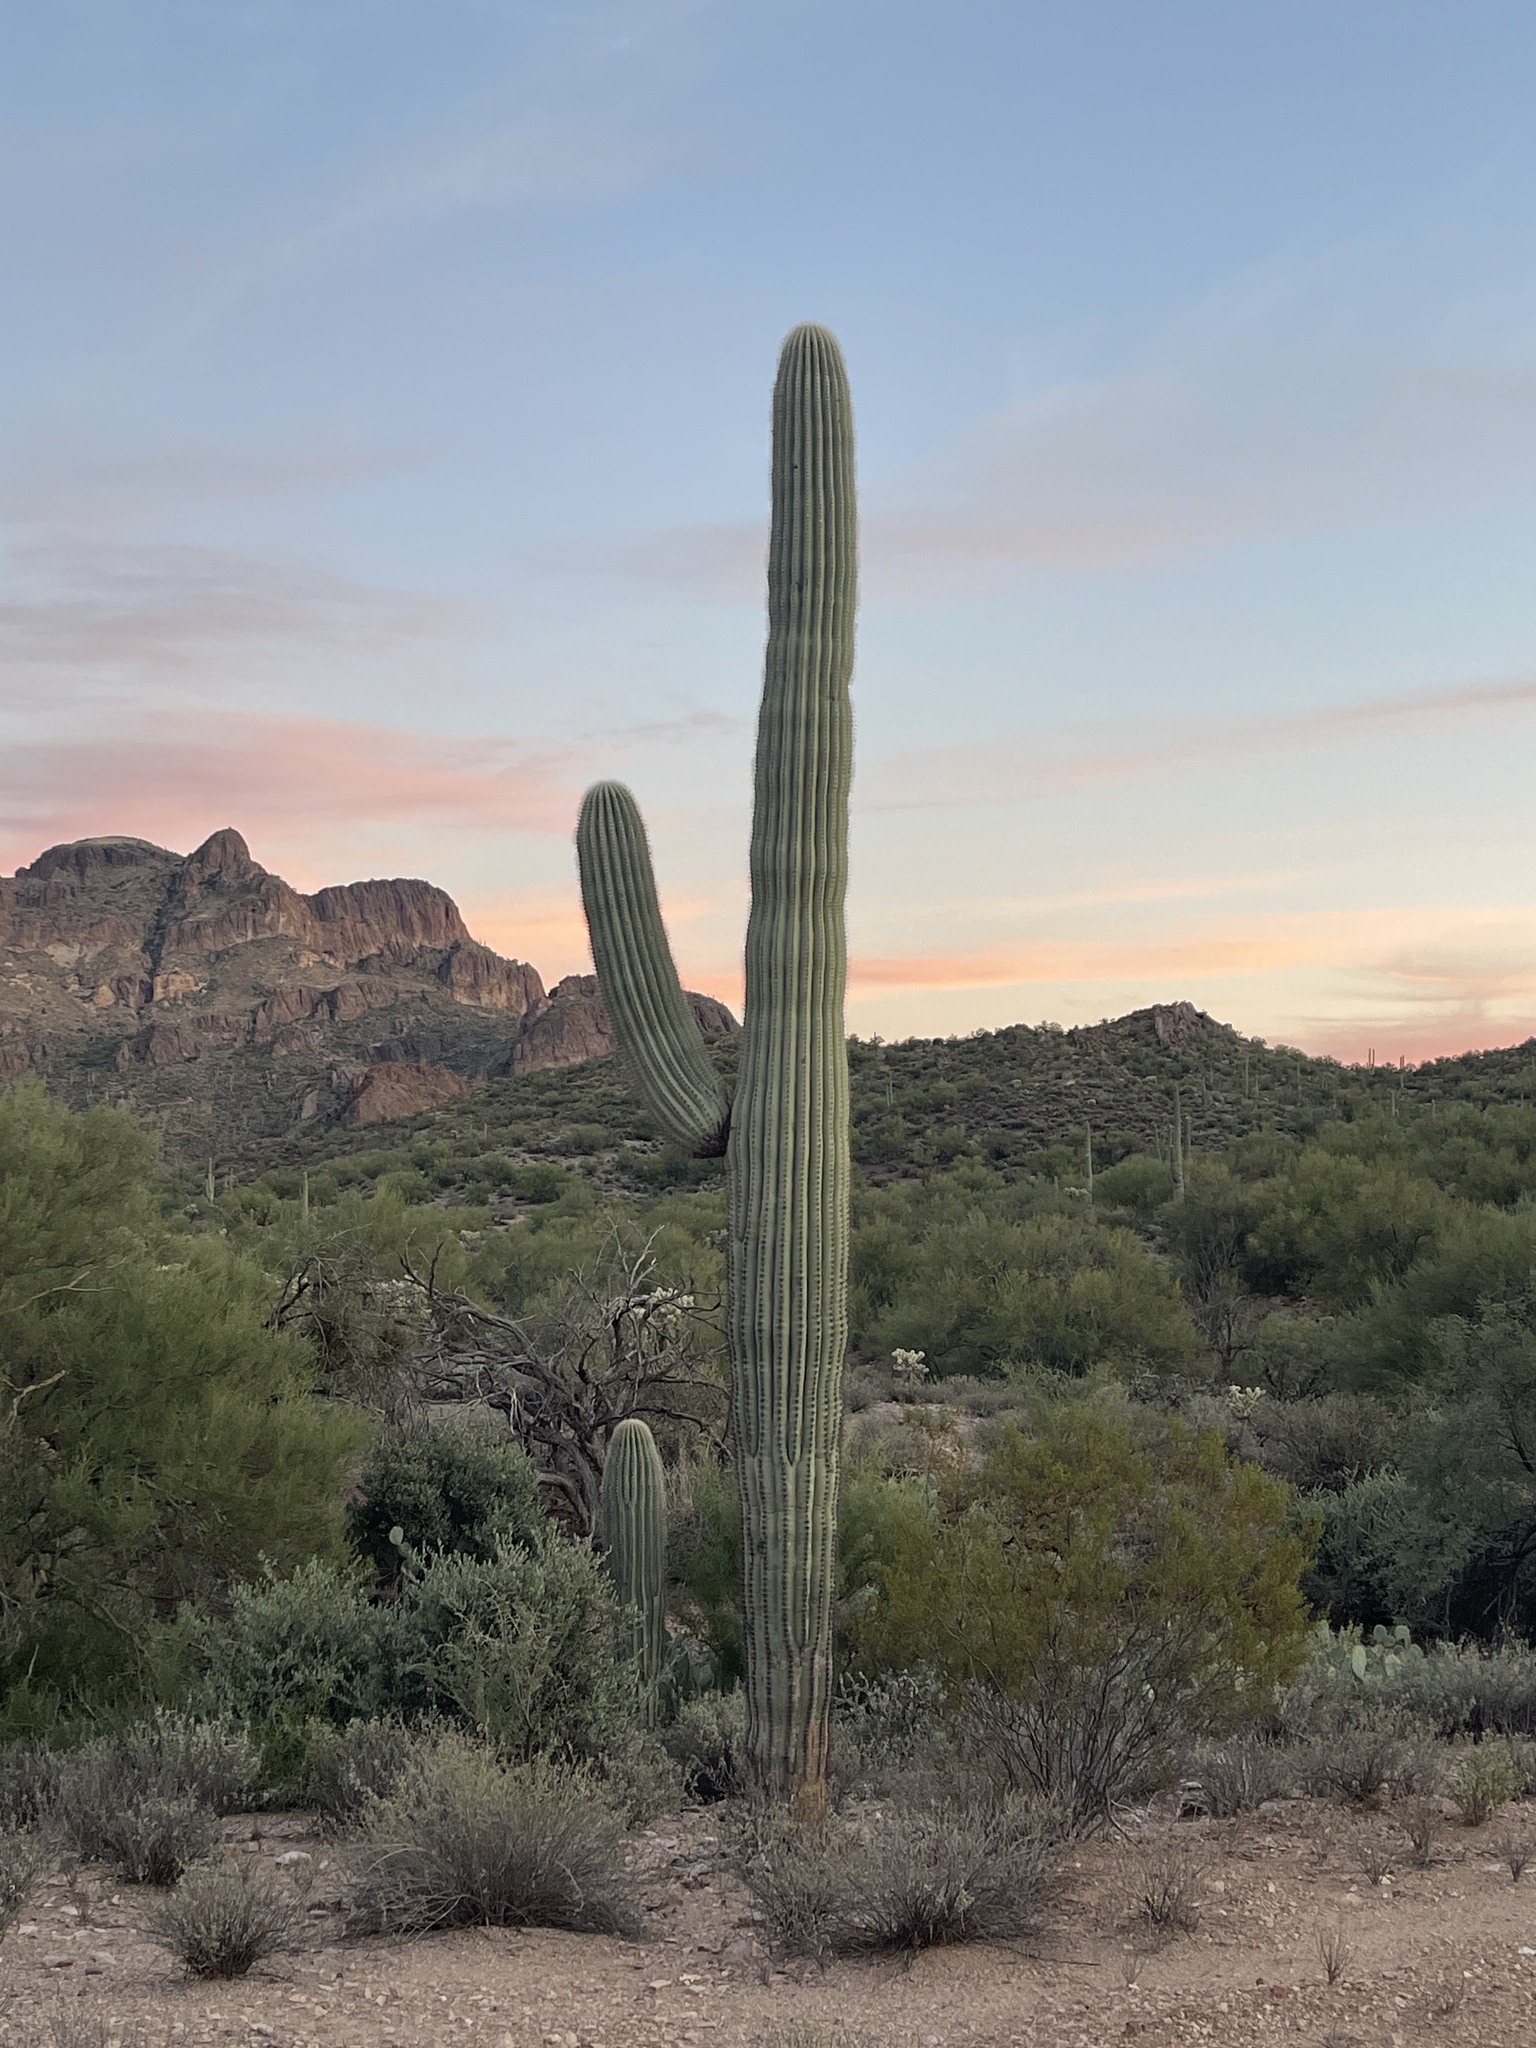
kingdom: Plantae
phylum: Tracheophyta
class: Magnoliopsida
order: Caryophyllales
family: Cactaceae
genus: Carnegiea
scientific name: Carnegiea gigantea
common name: Saguaro
